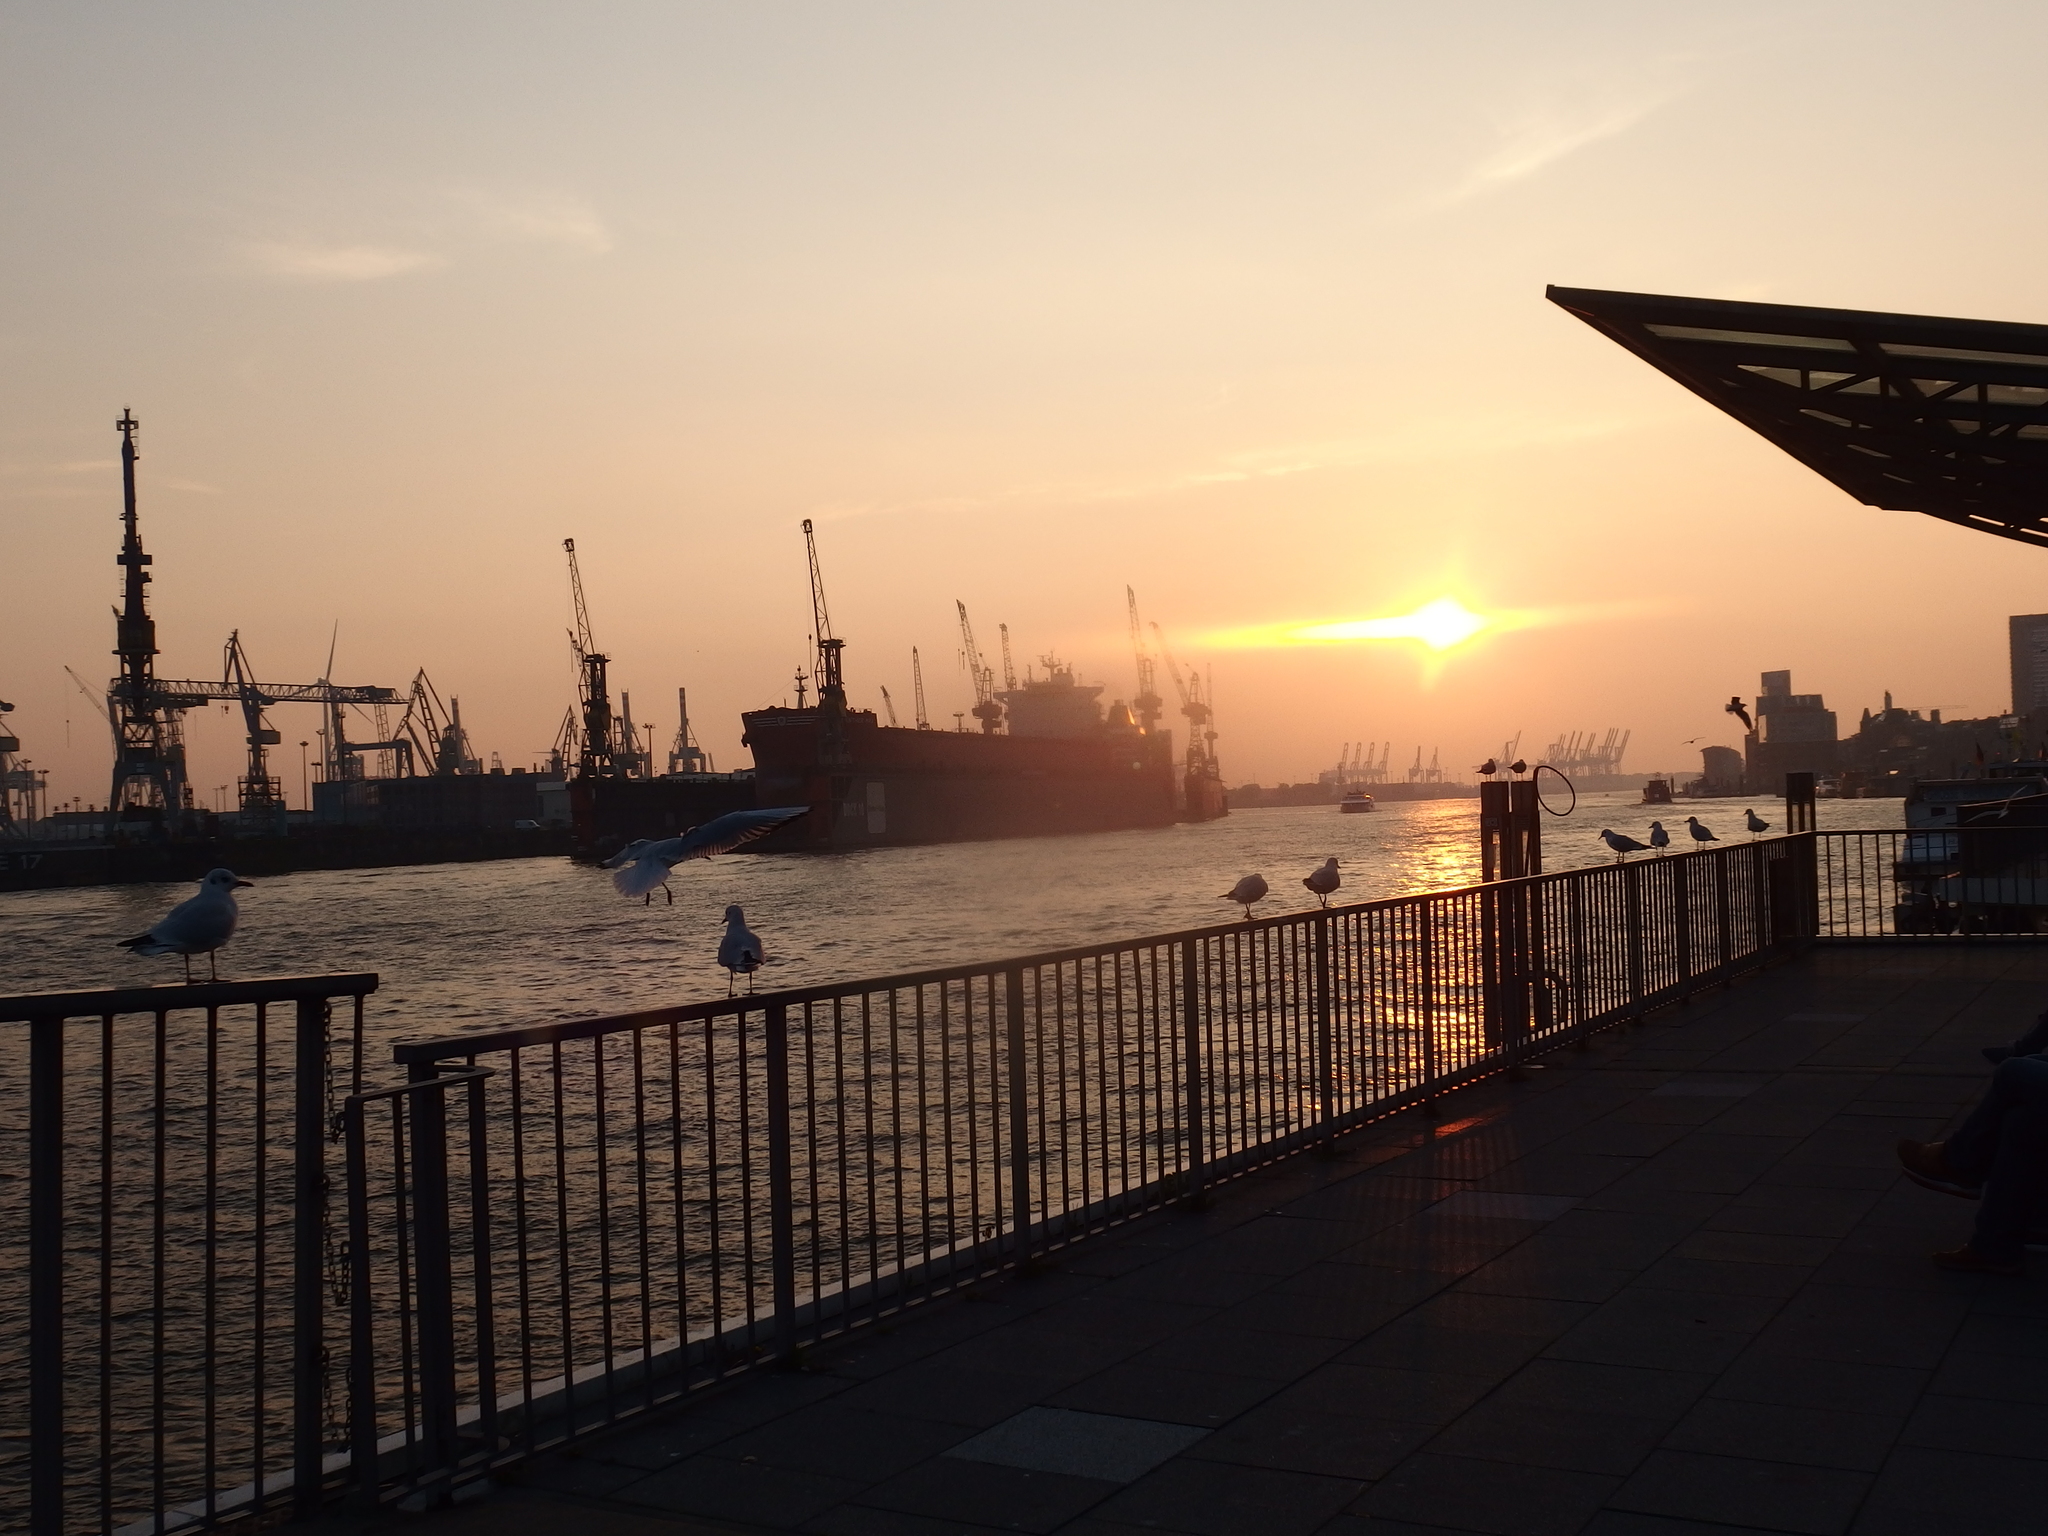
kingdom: Animalia
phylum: Chordata
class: Aves
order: Charadriiformes
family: Laridae
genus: Chroicocephalus
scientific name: Chroicocephalus ridibundus
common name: Black-headed gull
